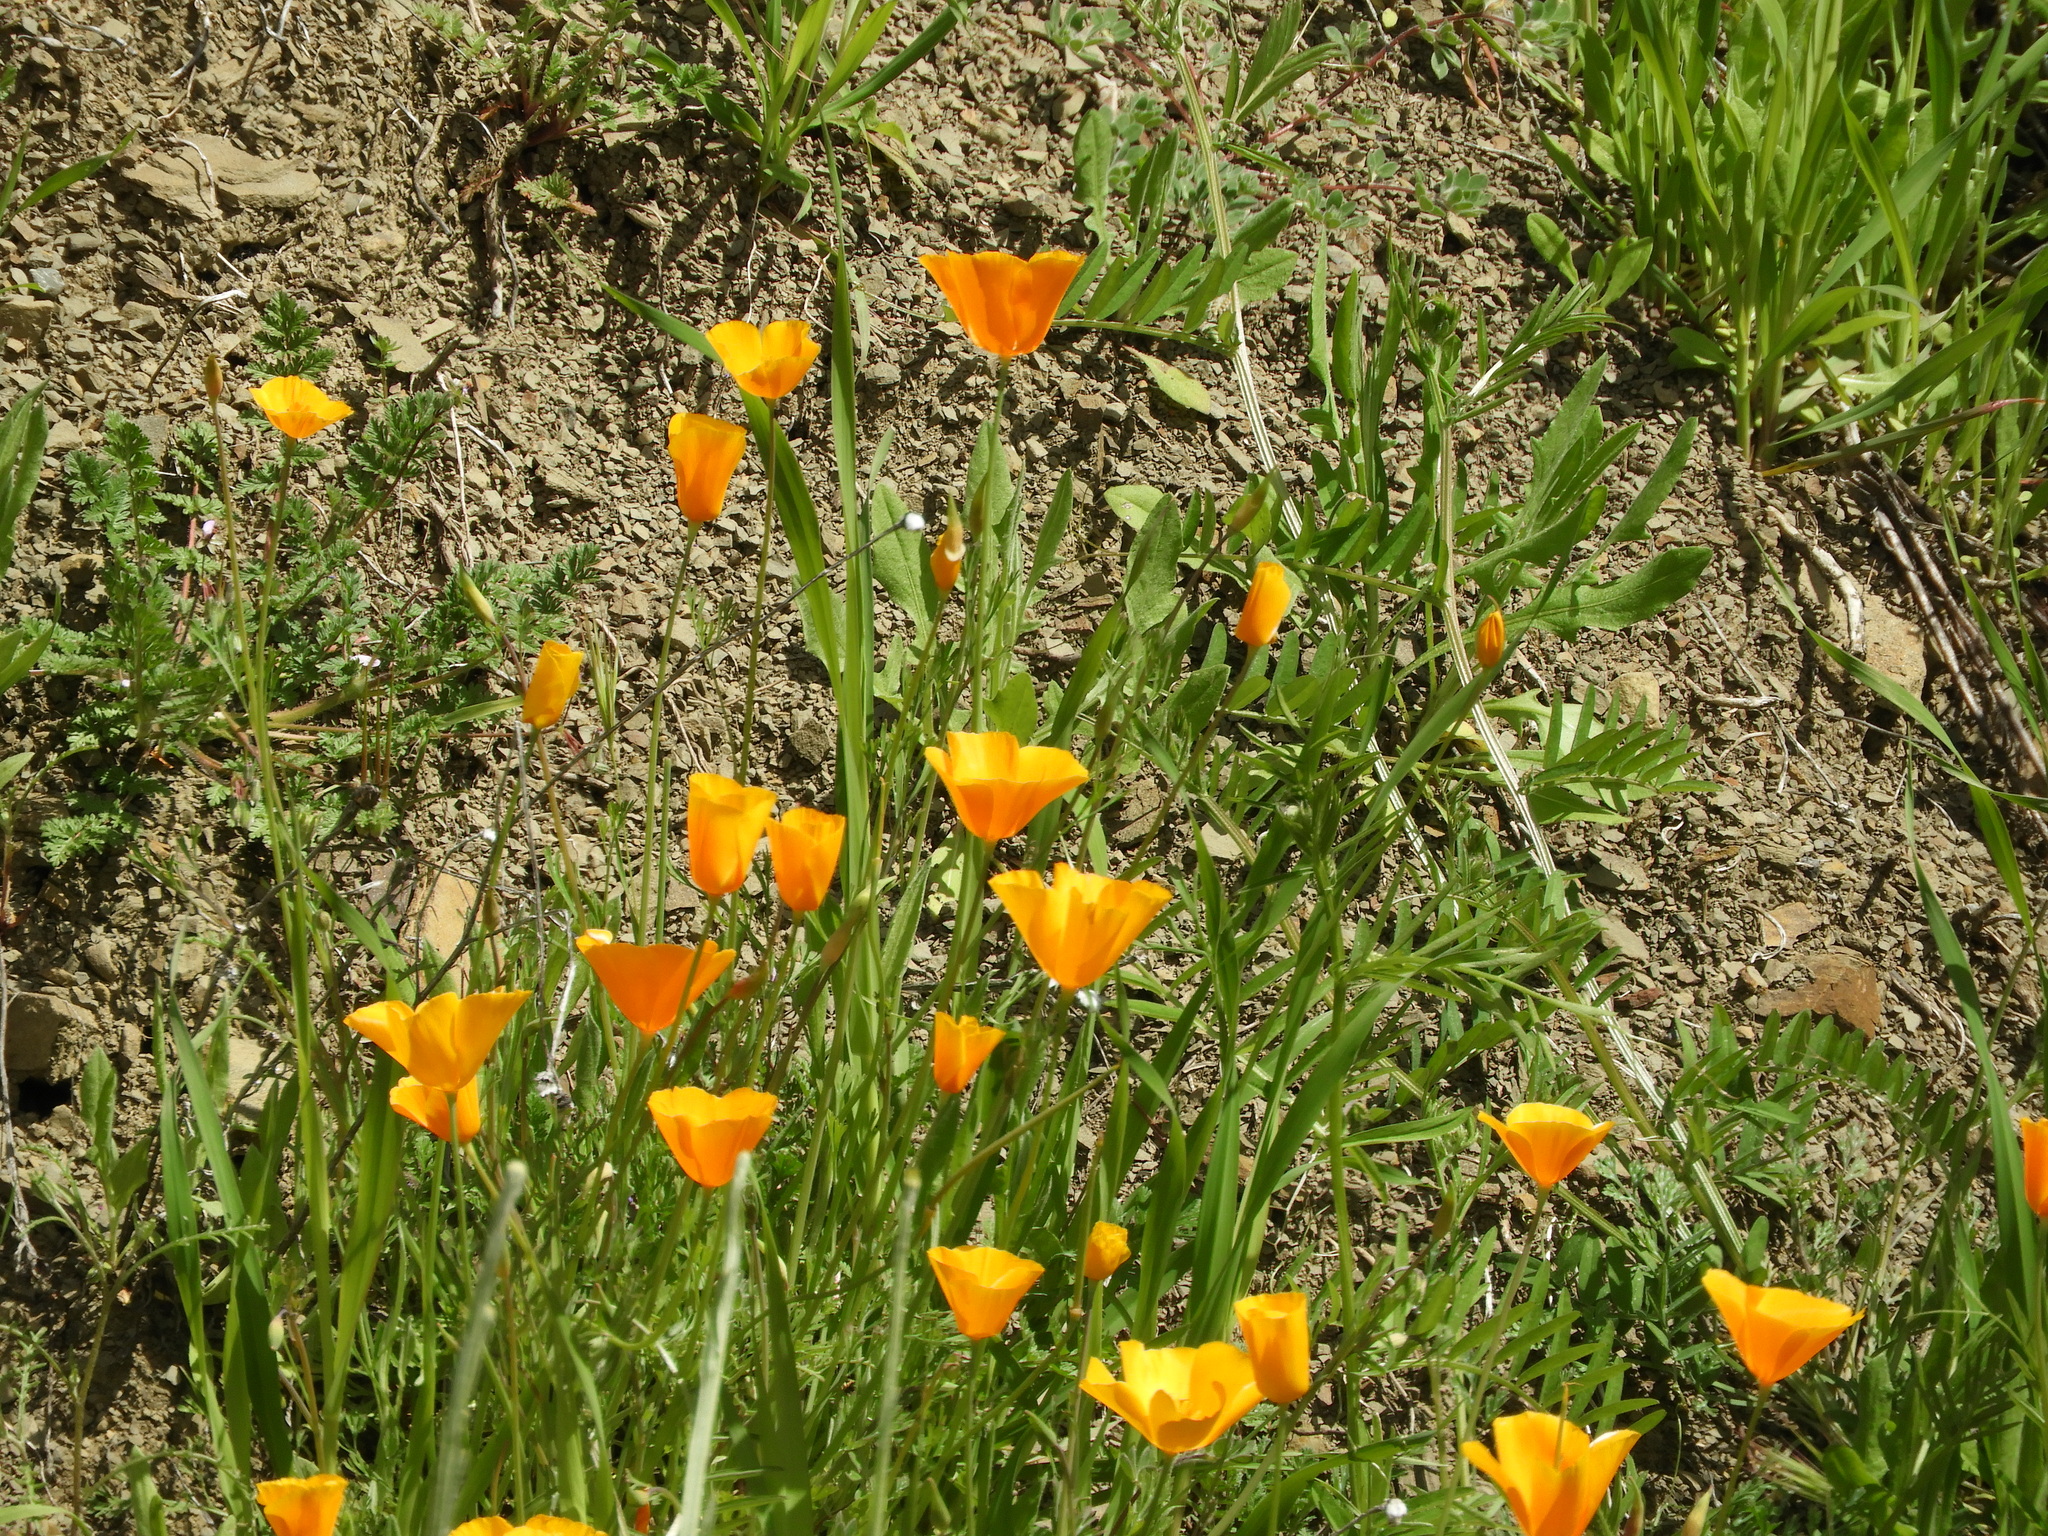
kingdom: Plantae
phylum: Tracheophyta
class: Magnoliopsida
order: Ranunculales
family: Papaveraceae
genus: Eschscholzia
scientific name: Eschscholzia caespitosa
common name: Tufted california-poppy
